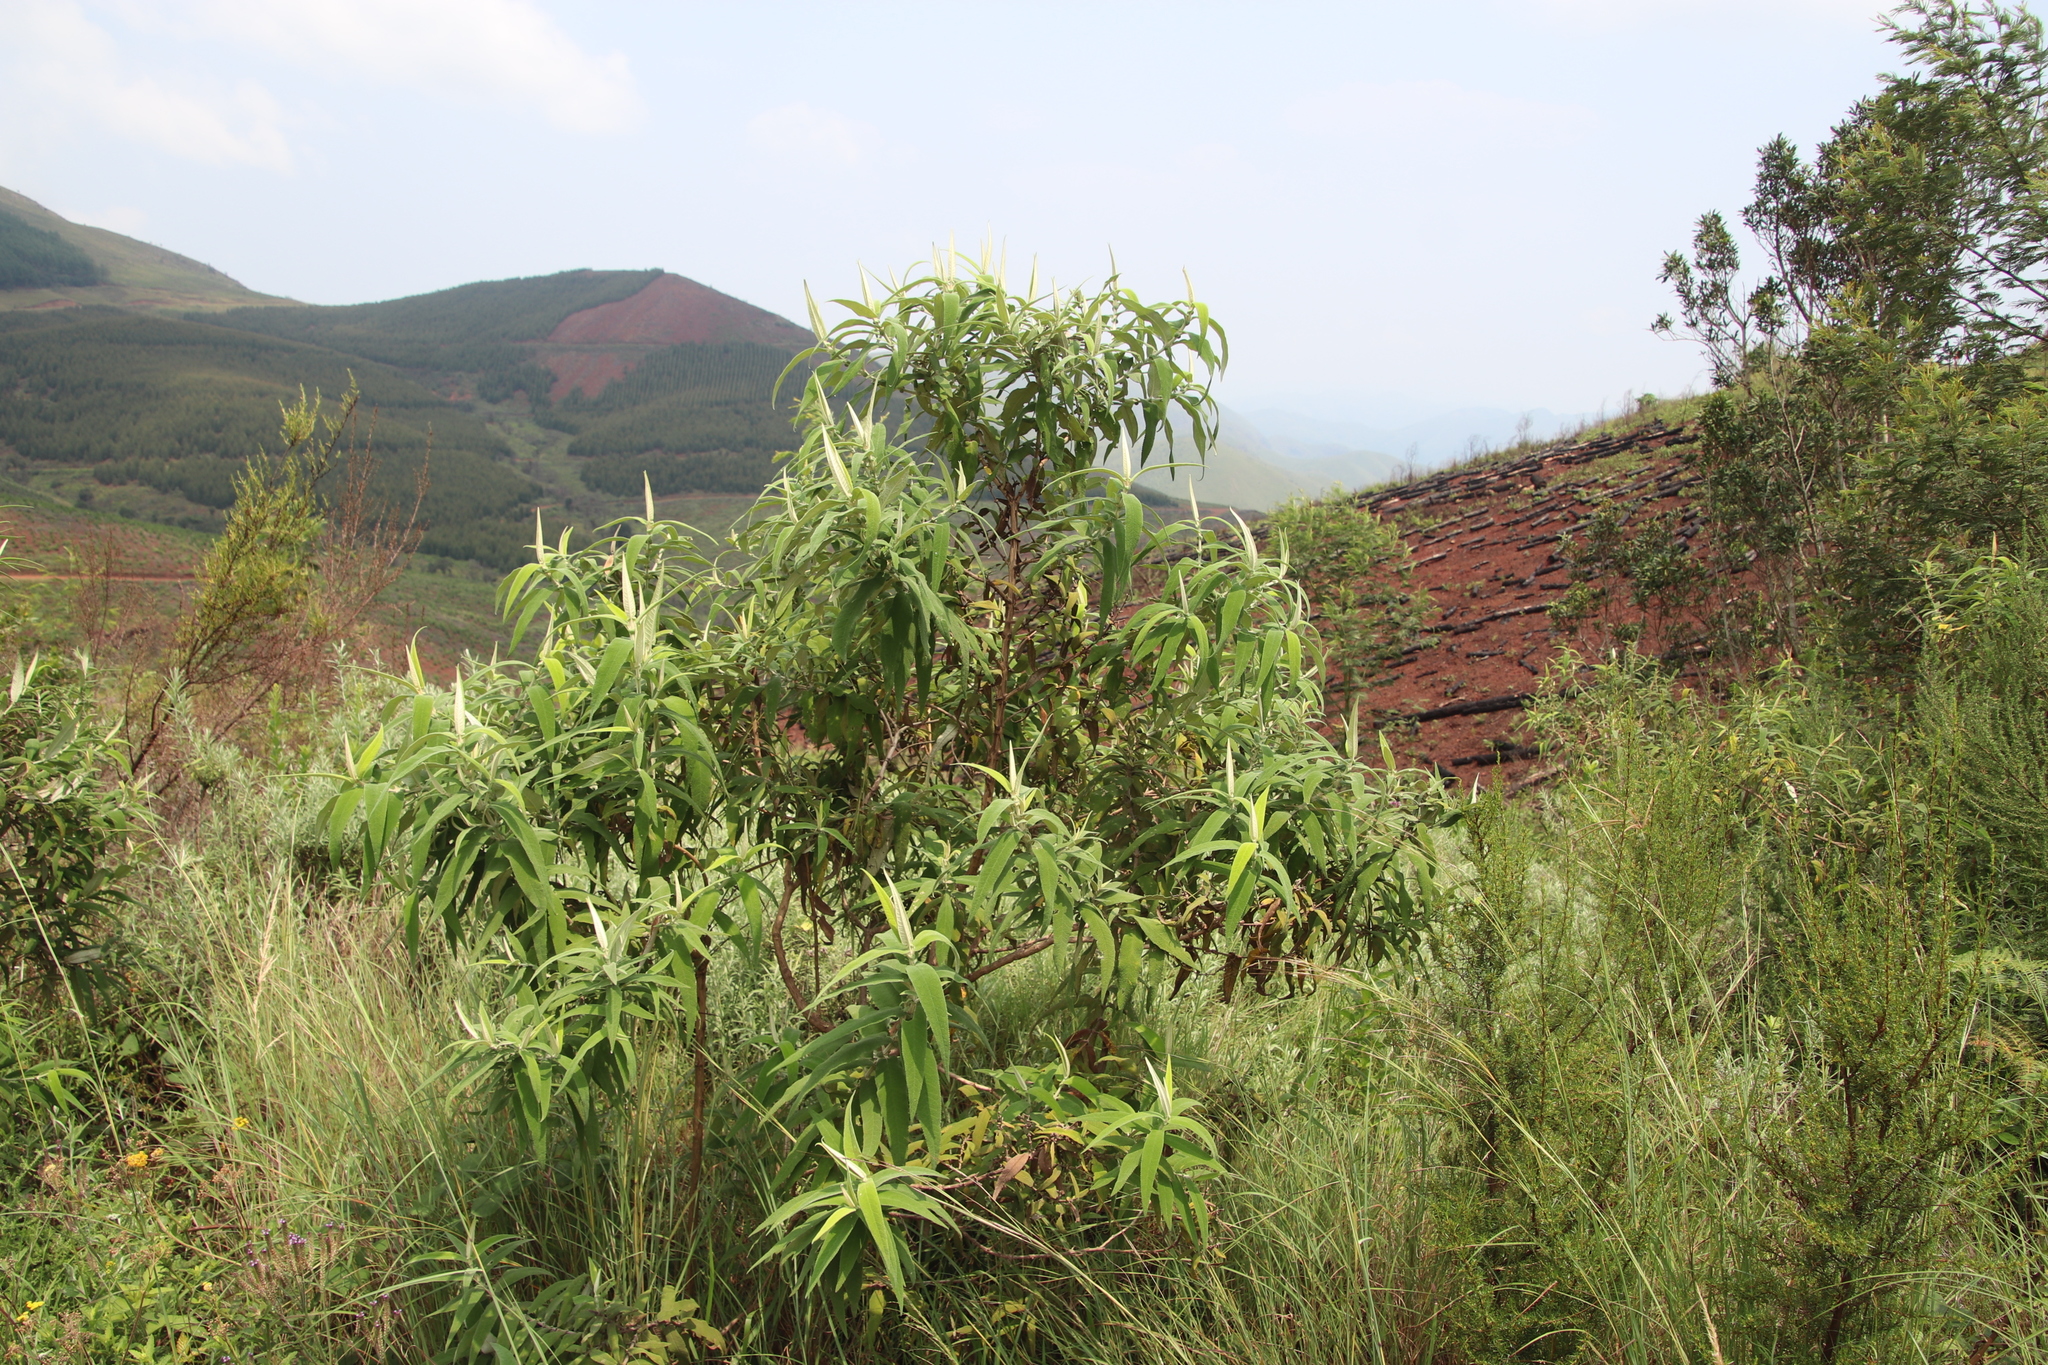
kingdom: Plantae
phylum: Tracheophyta
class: Magnoliopsida
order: Lamiales
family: Scrophulariaceae
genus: Buddleja
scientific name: Buddleja salviifolia
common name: Sagewood
